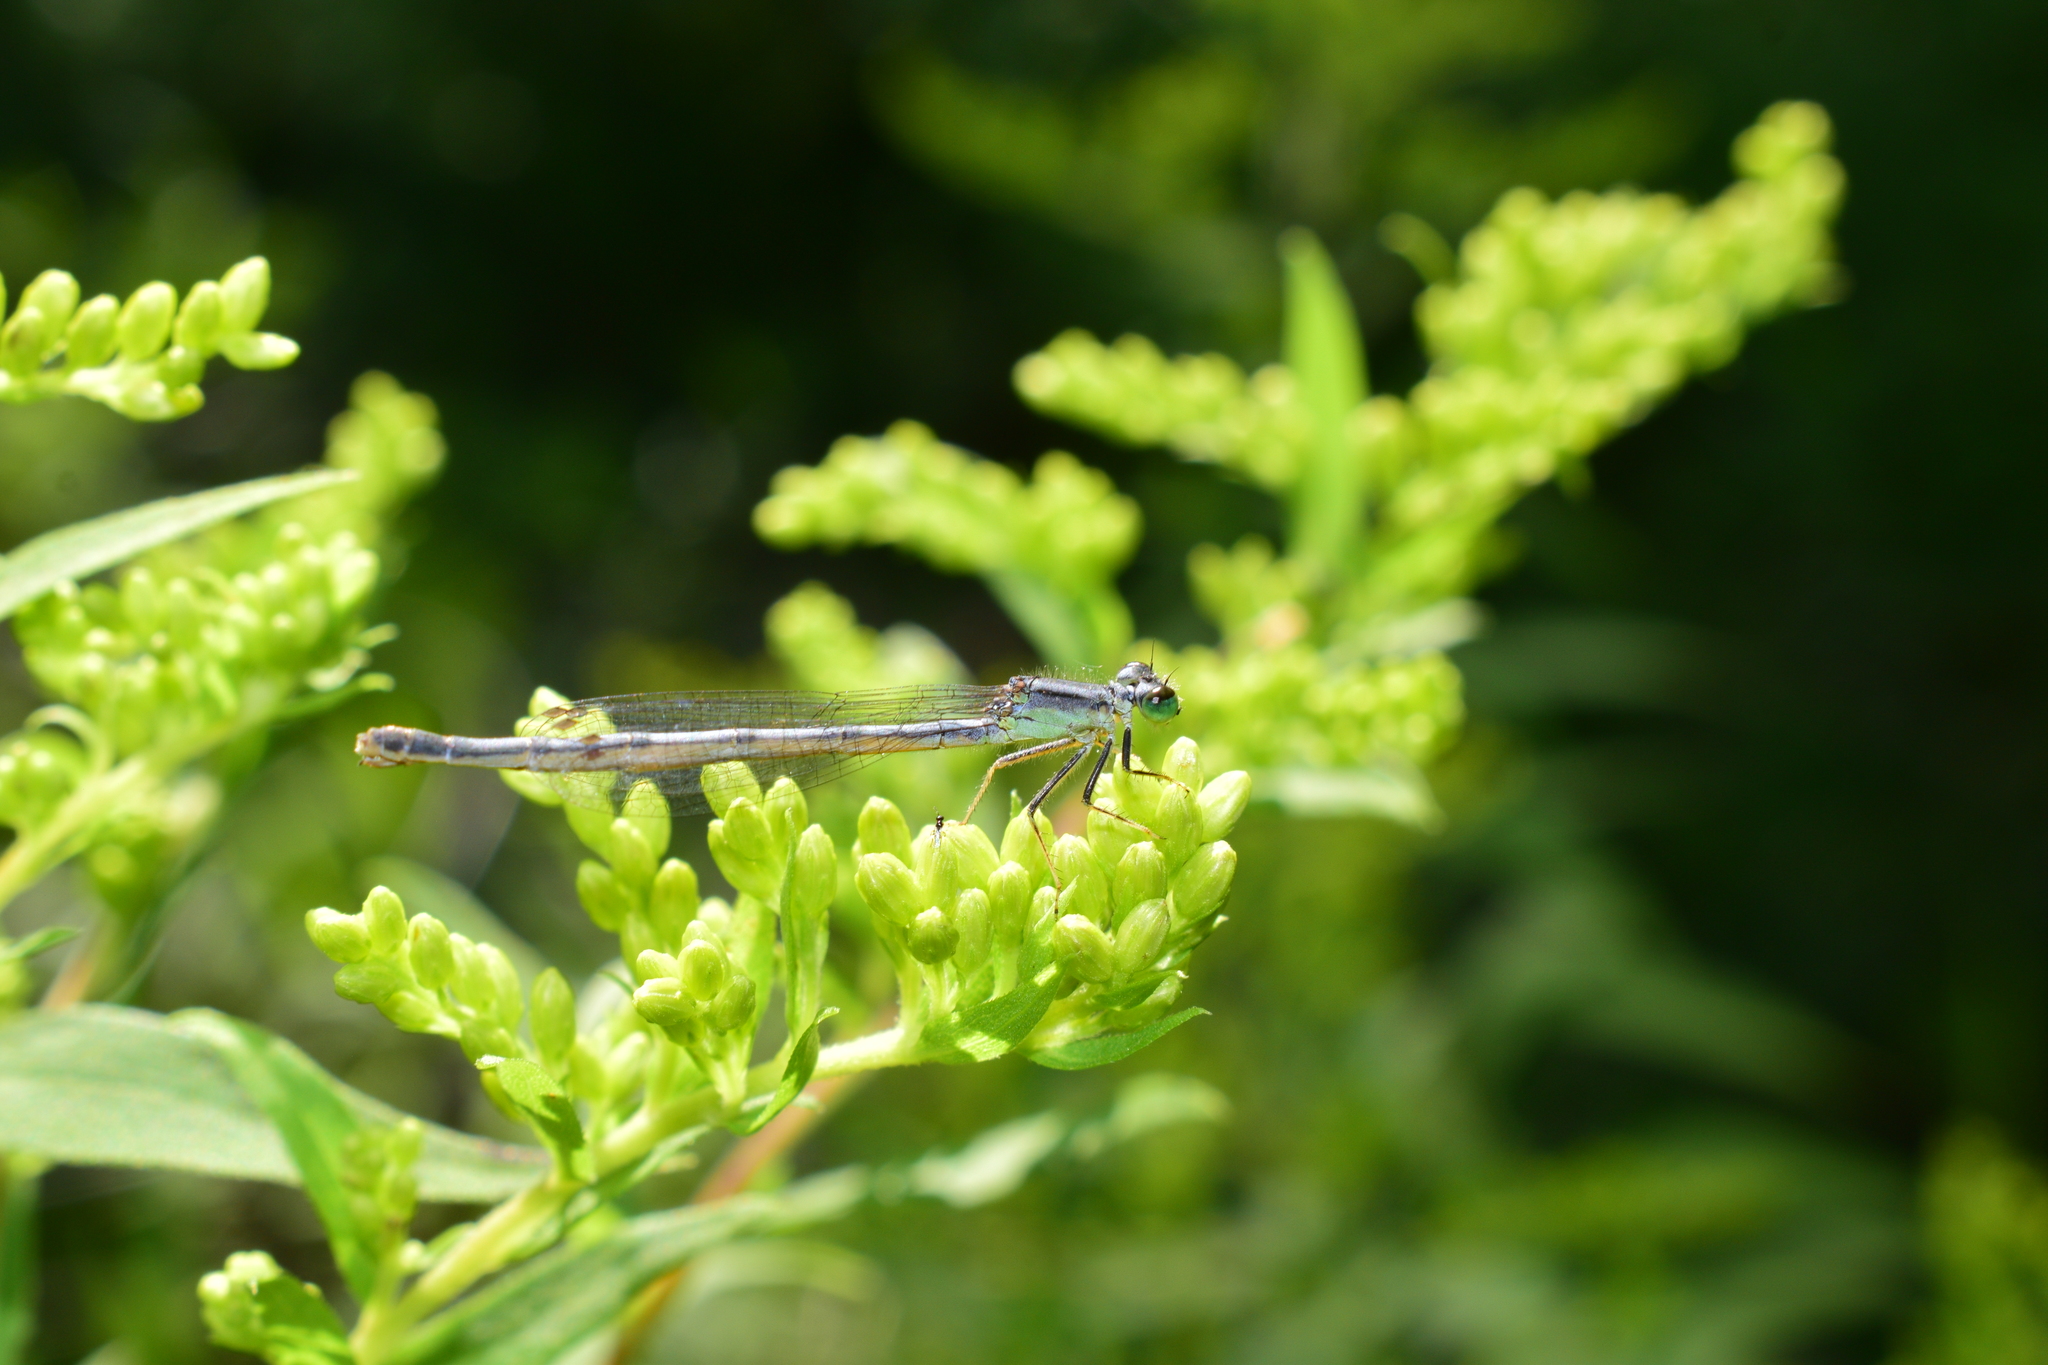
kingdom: Animalia
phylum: Arthropoda
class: Insecta
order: Odonata
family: Coenagrionidae
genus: Ischnura
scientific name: Ischnura verticalis
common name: Eastern forktail
